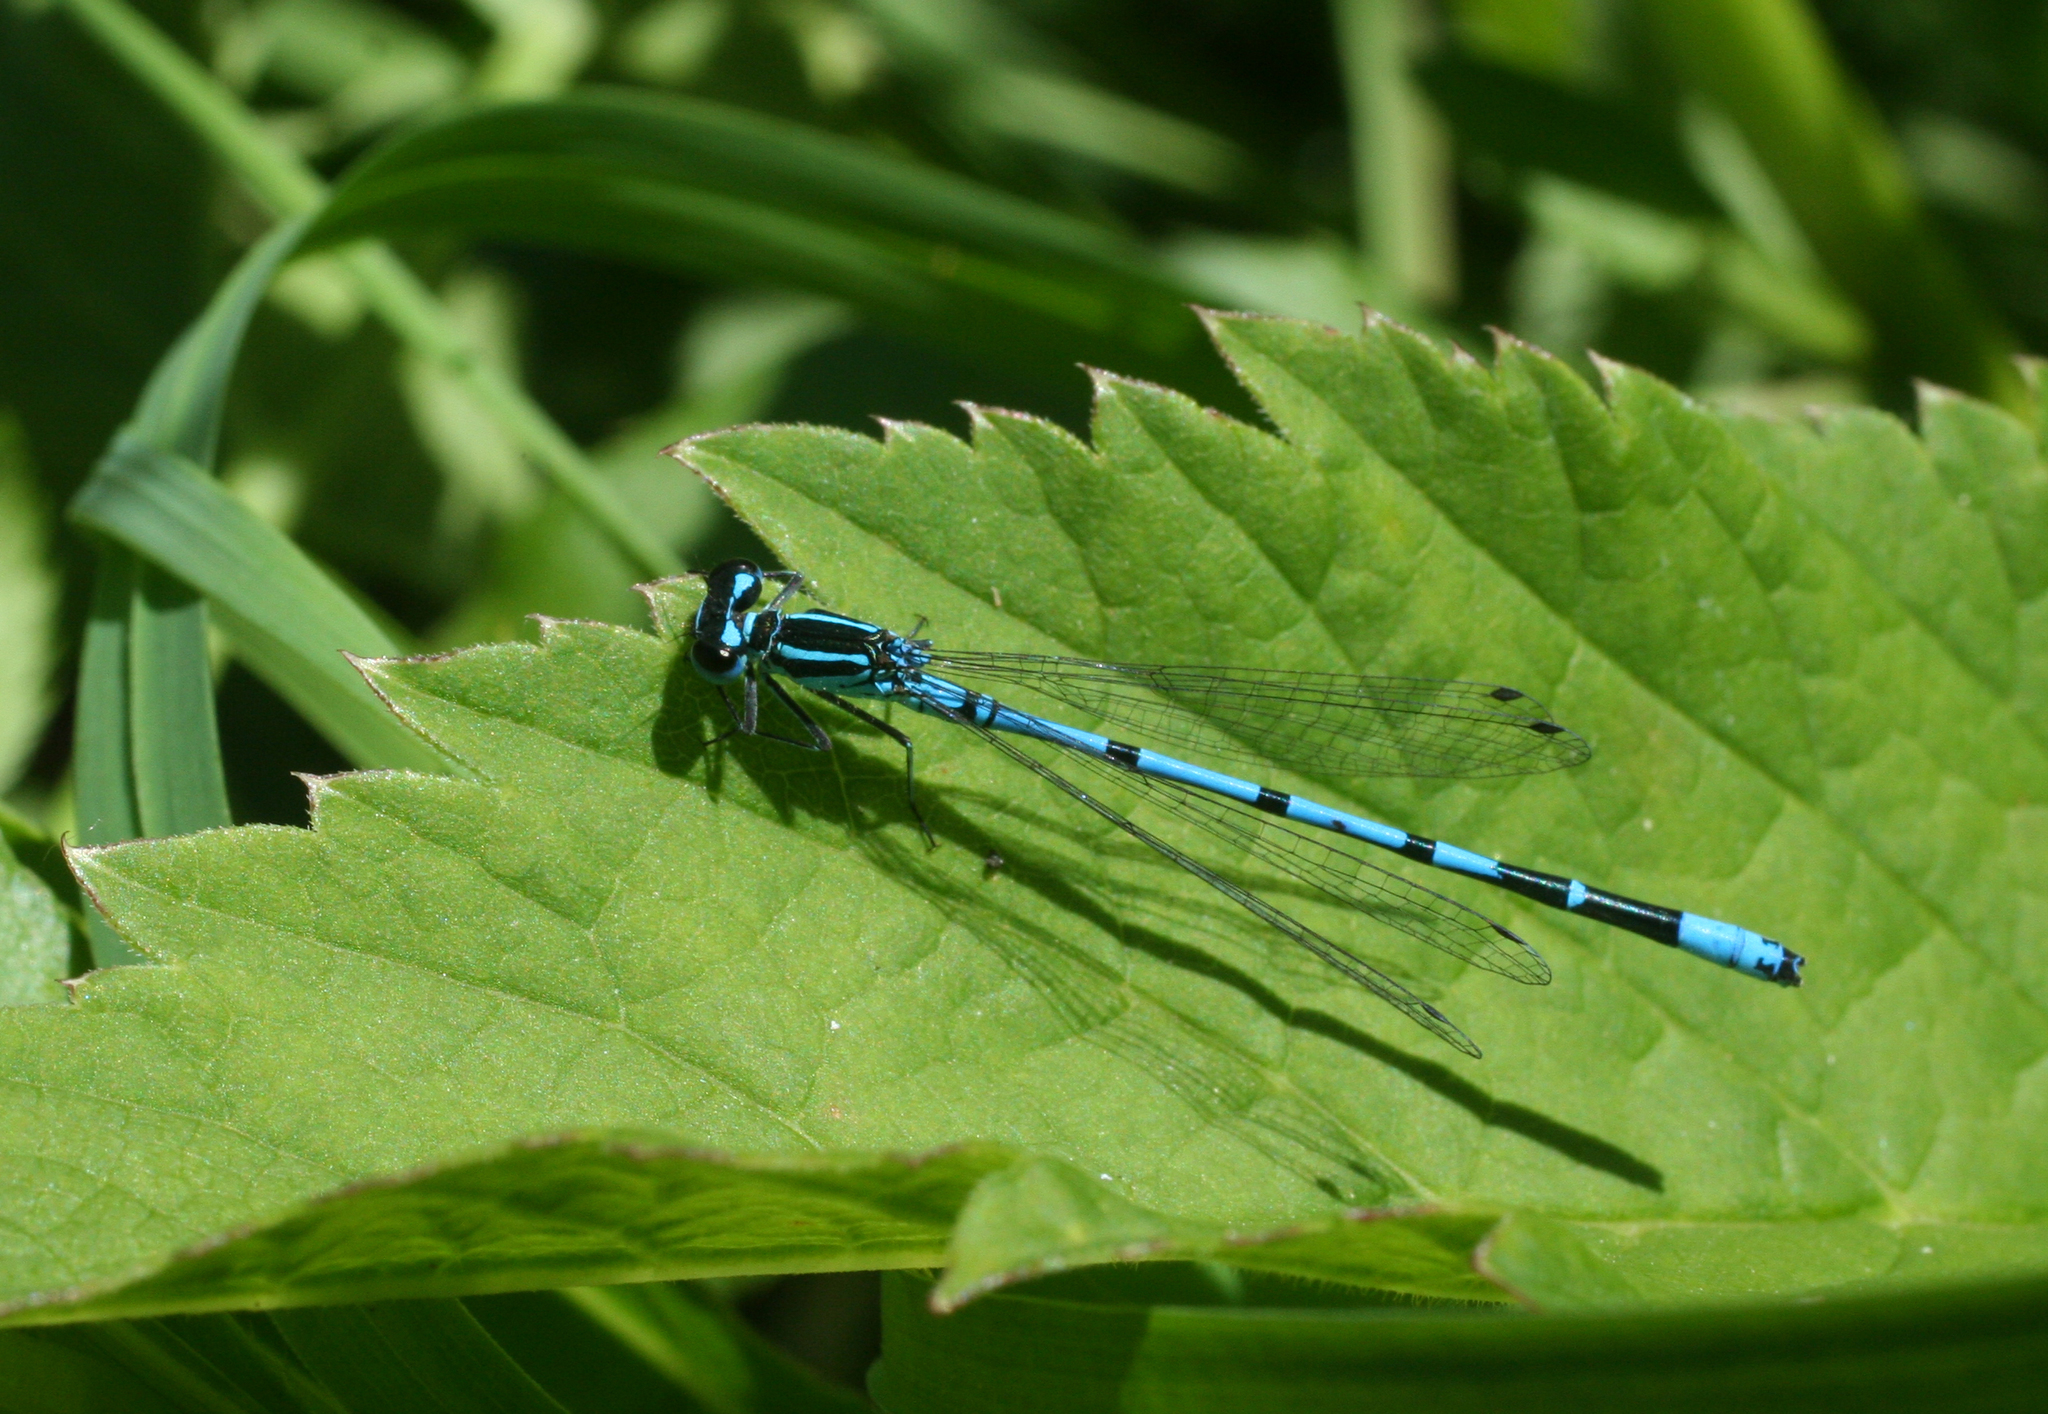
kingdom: Animalia
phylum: Arthropoda
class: Insecta
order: Odonata
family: Coenagrionidae
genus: Coenagrion
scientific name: Coenagrion puella
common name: Azure damselfly
